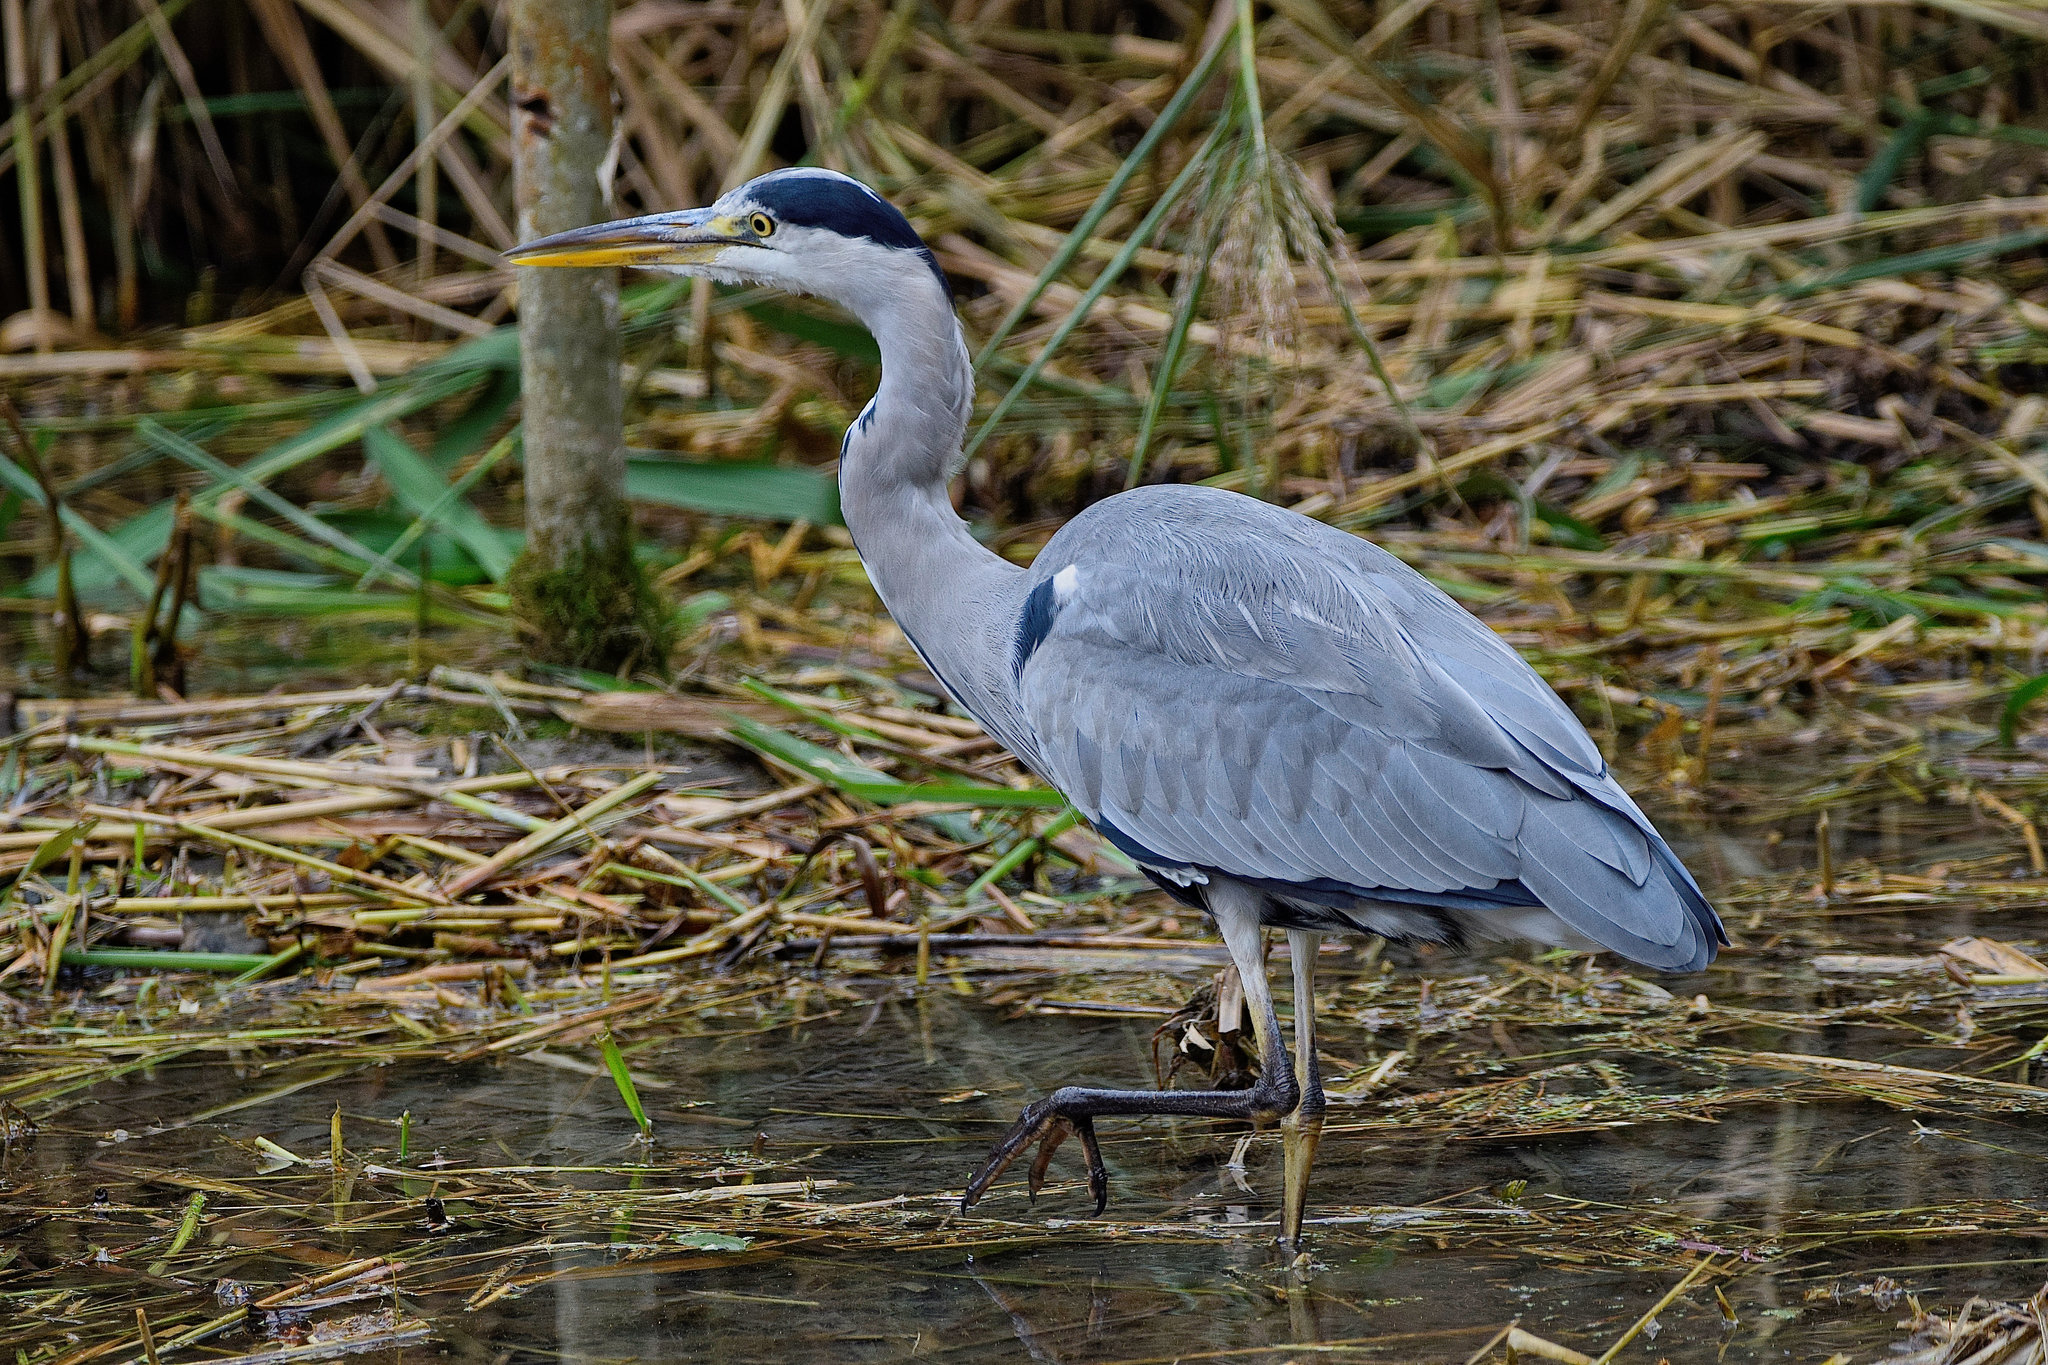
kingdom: Animalia
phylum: Chordata
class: Aves
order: Pelecaniformes
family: Ardeidae
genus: Ardea
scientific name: Ardea cinerea
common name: Grey heron
